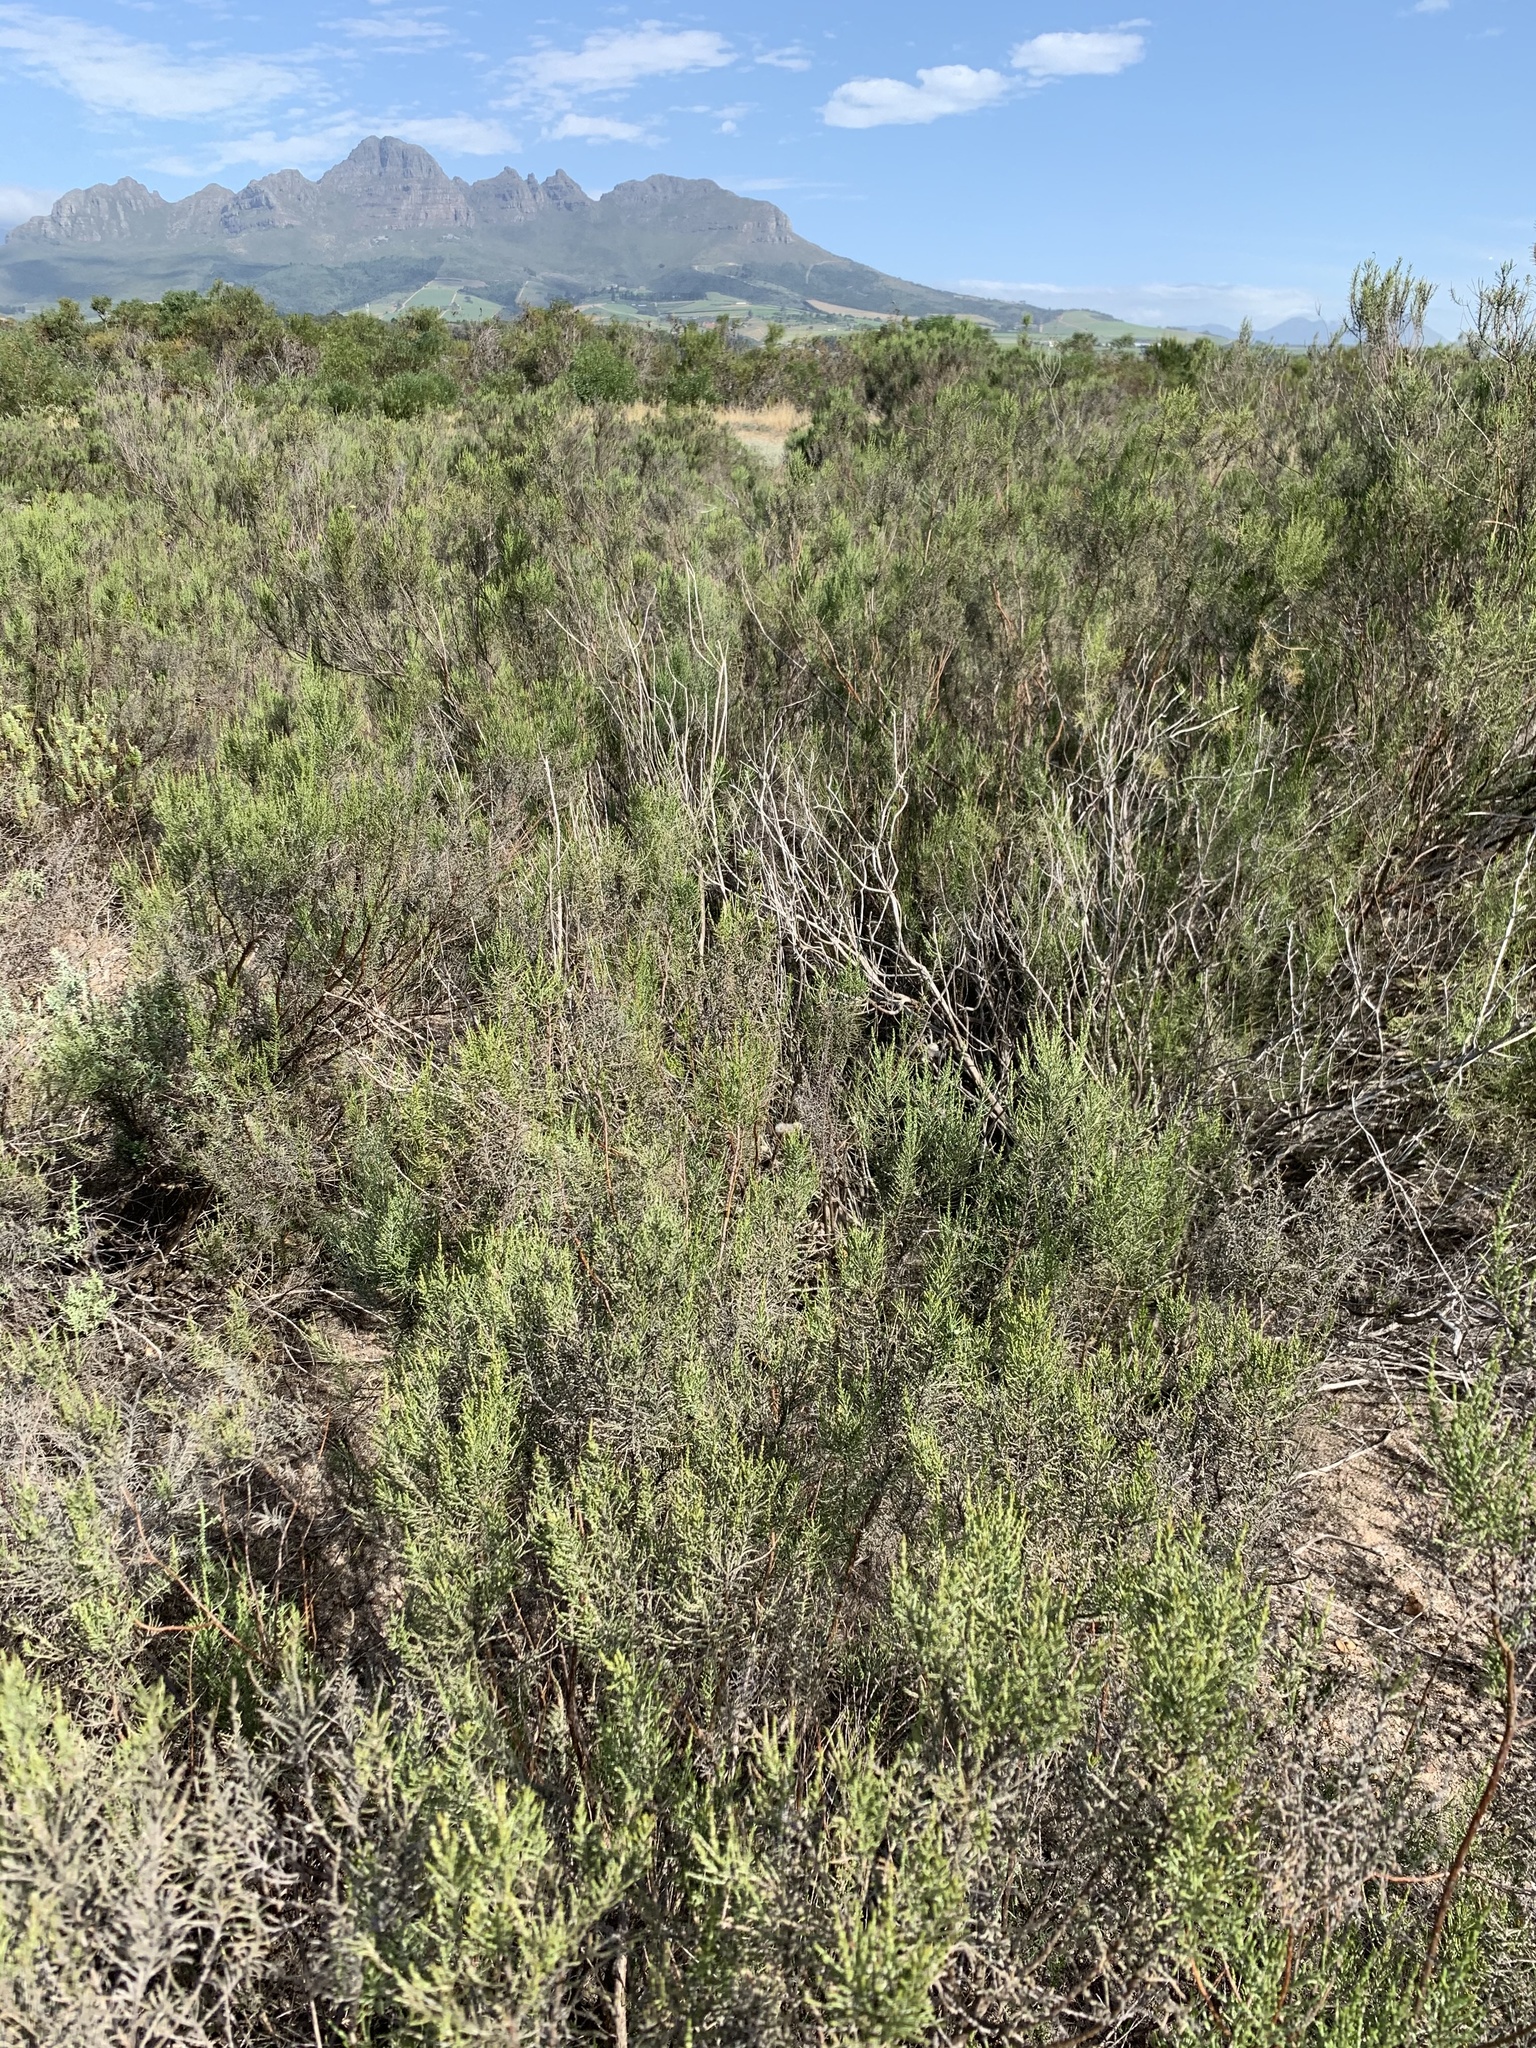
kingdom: Plantae
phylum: Tracheophyta
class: Magnoliopsida
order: Asterales
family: Asteraceae
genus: Dicerothamnus
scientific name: Dicerothamnus rhinocerotis
